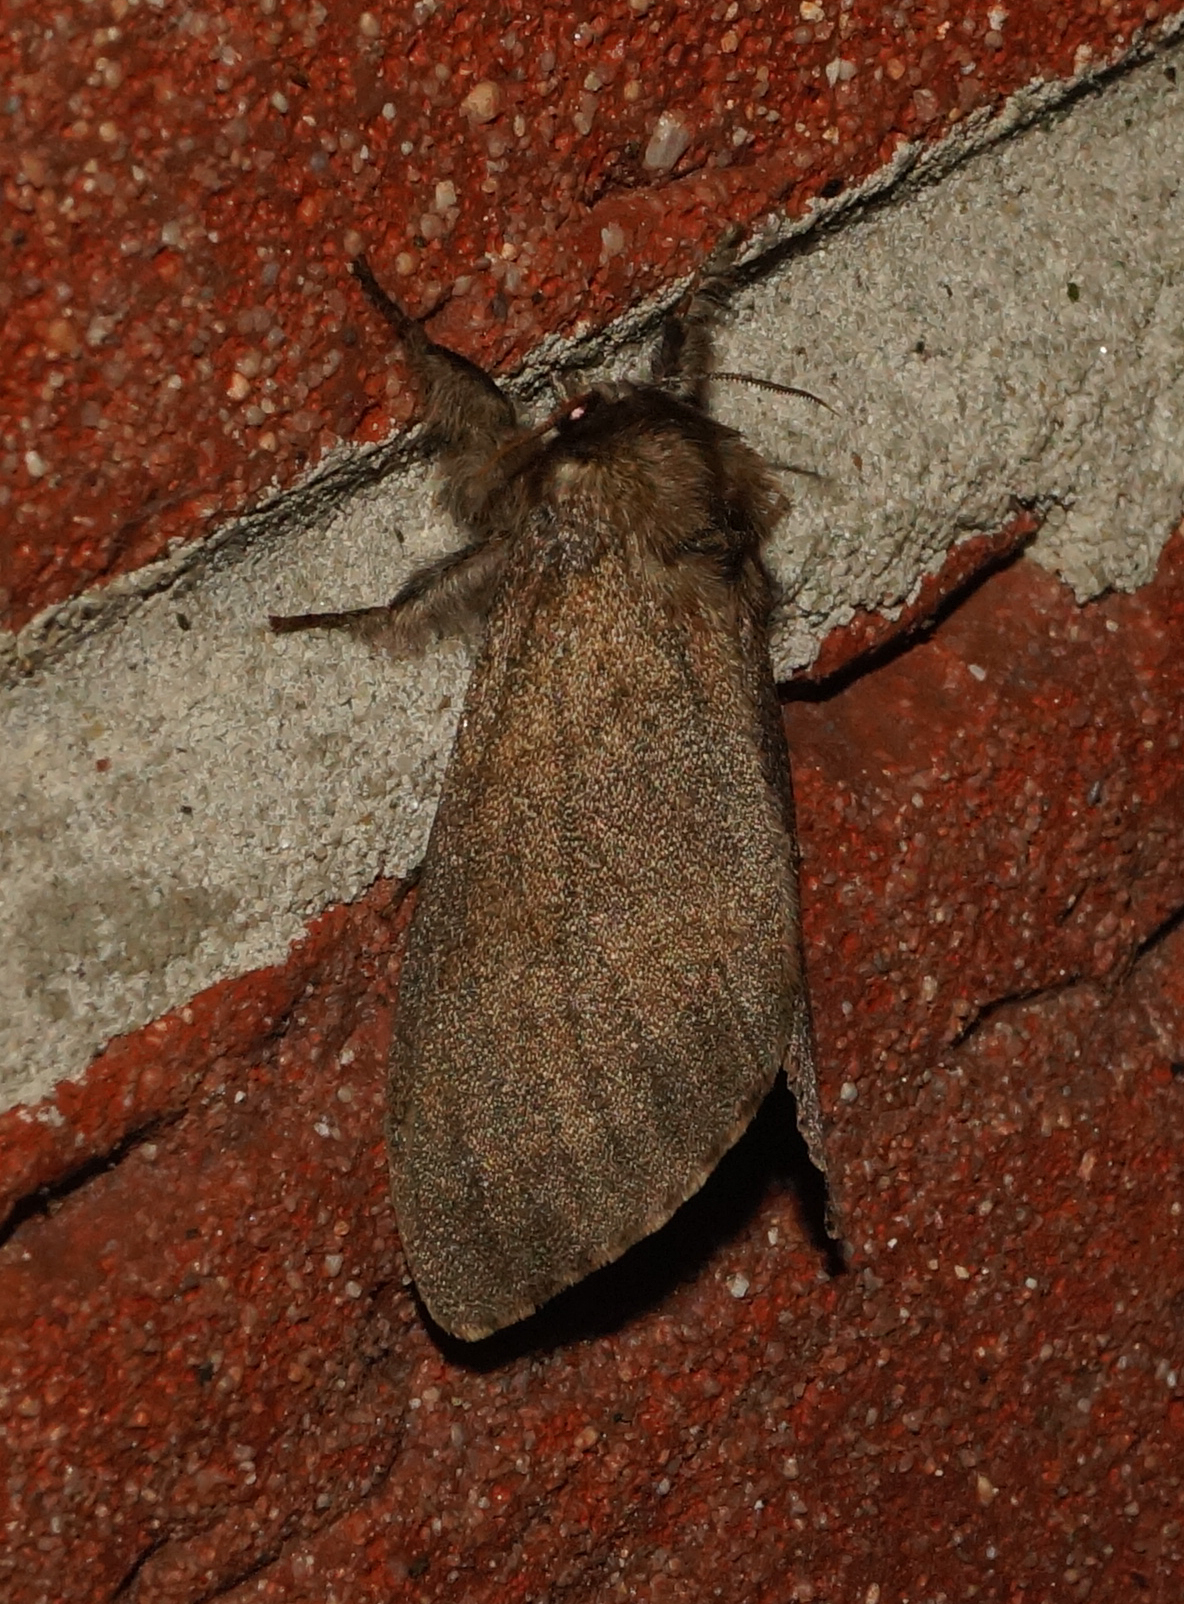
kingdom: Animalia
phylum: Arthropoda
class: Insecta
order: Lepidoptera
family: Erebidae
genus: Calliteara
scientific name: Calliteara pudibunda
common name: Pale tussock
